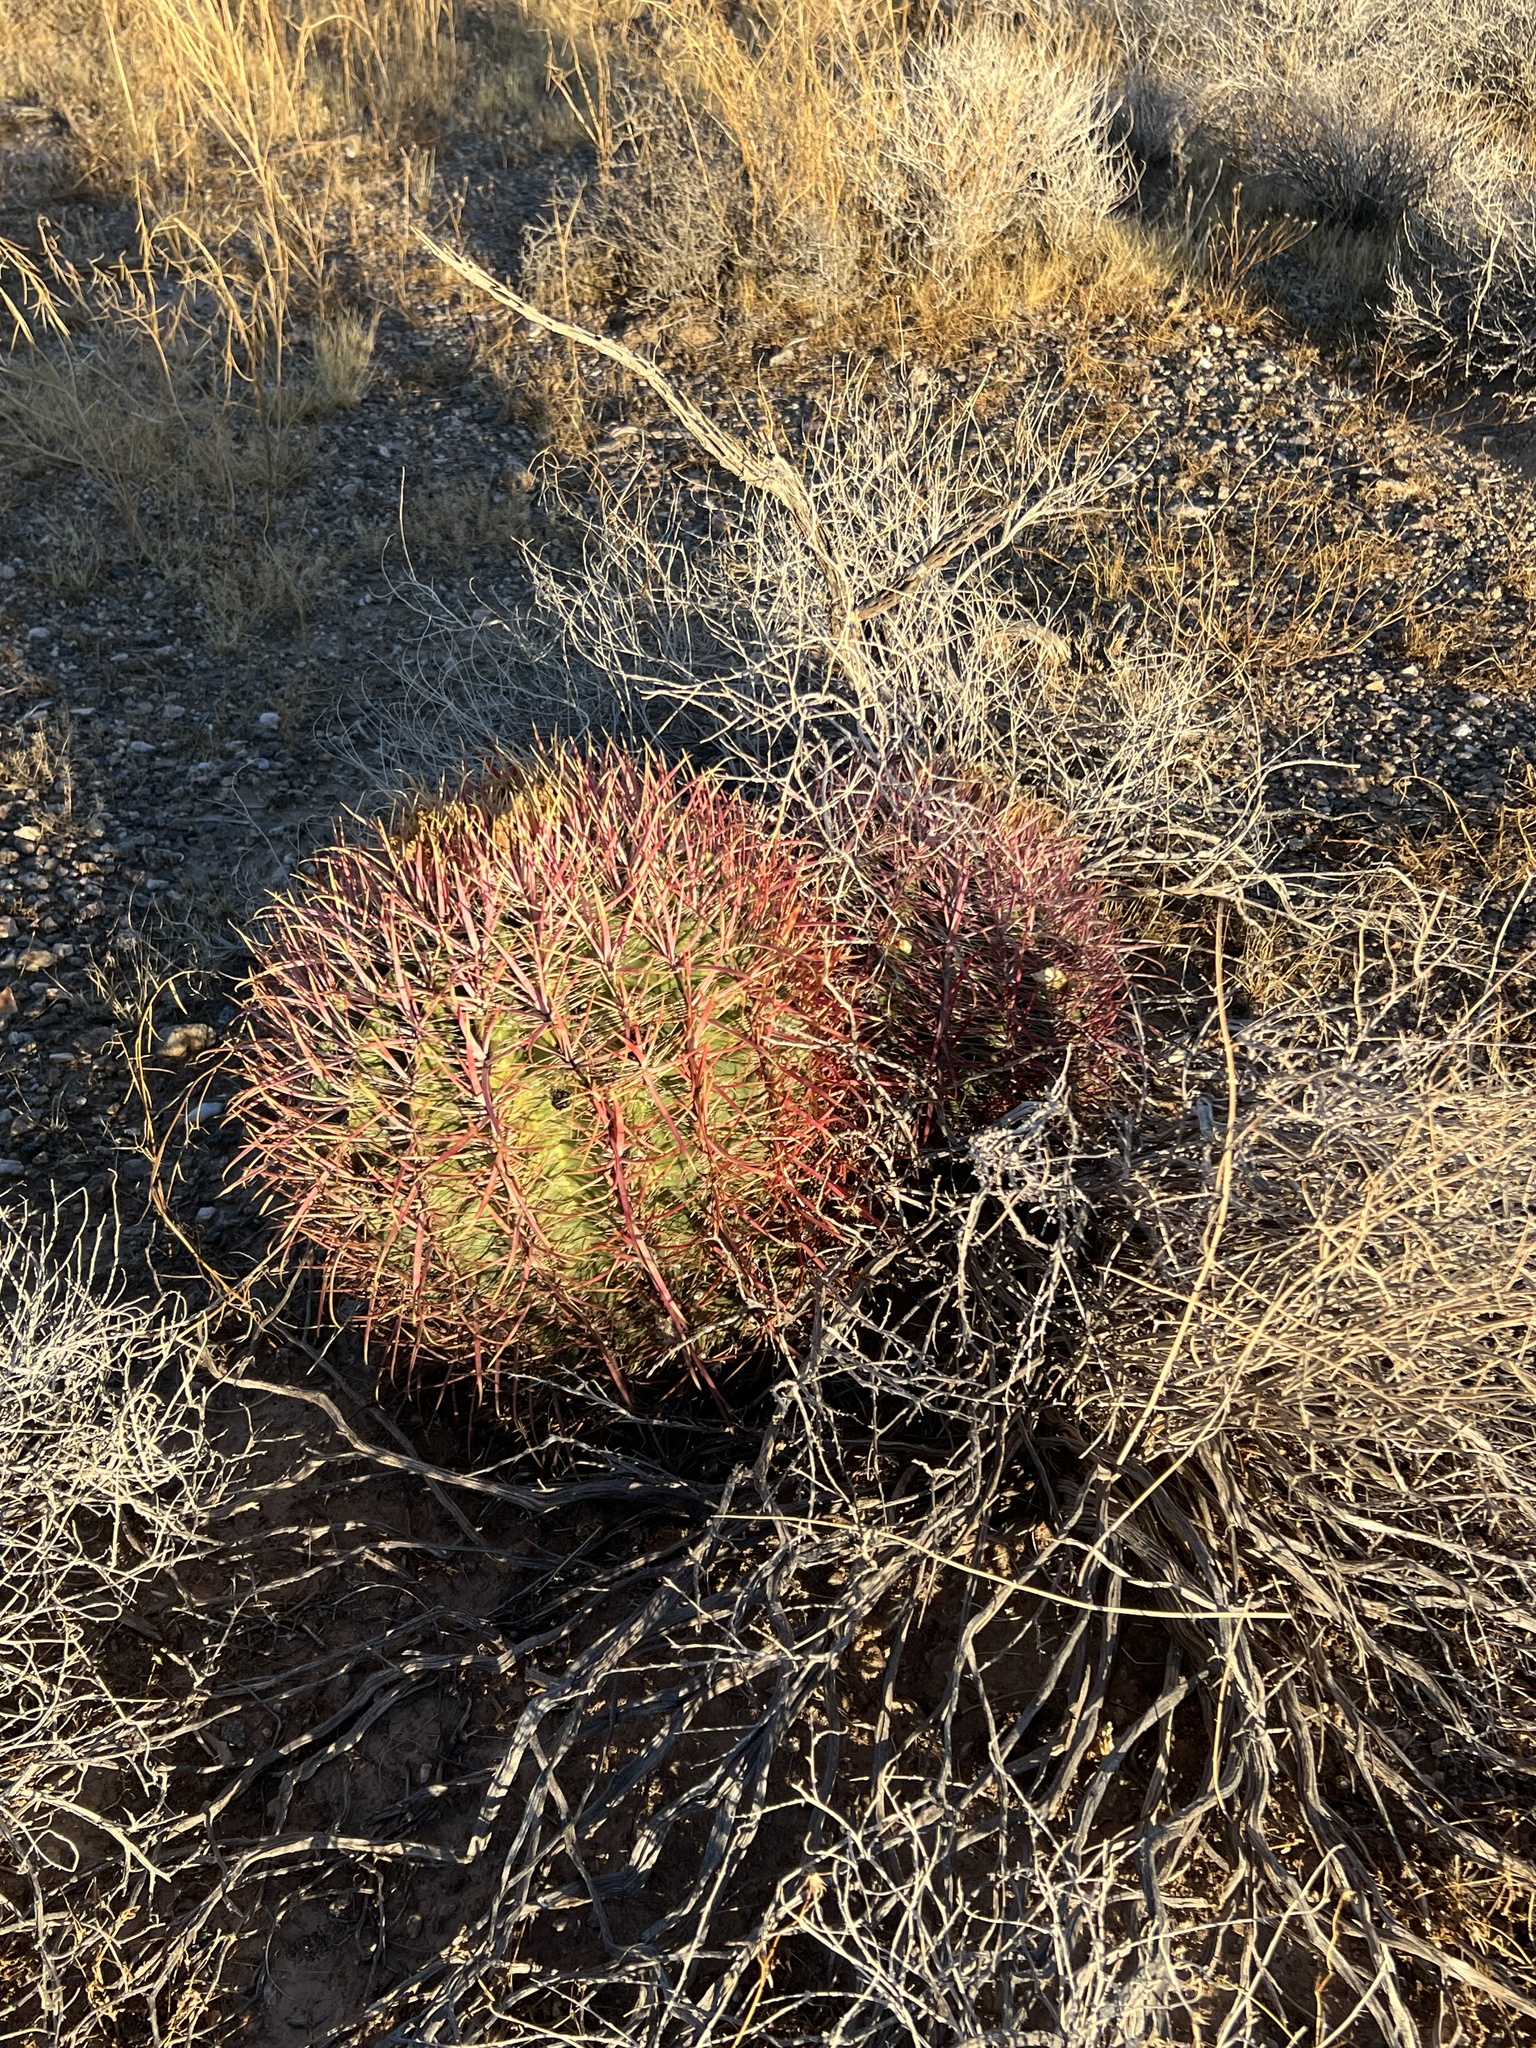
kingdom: Plantae
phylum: Tracheophyta
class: Magnoliopsida
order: Caryophyllales
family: Cactaceae
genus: Ferocactus
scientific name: Ferocactus cylindraceus
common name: California barrel cactus
